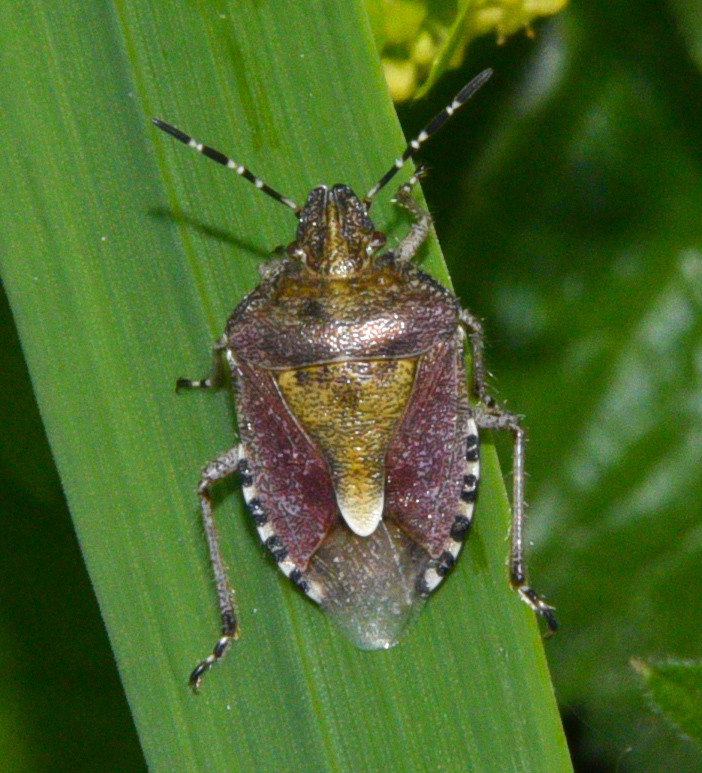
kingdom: Animalia
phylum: Arthropoda
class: Insecta
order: Hemiptera
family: Pentatomidae
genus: Dolycoris
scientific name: Dolycoris baccarum
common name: Sloe bug
